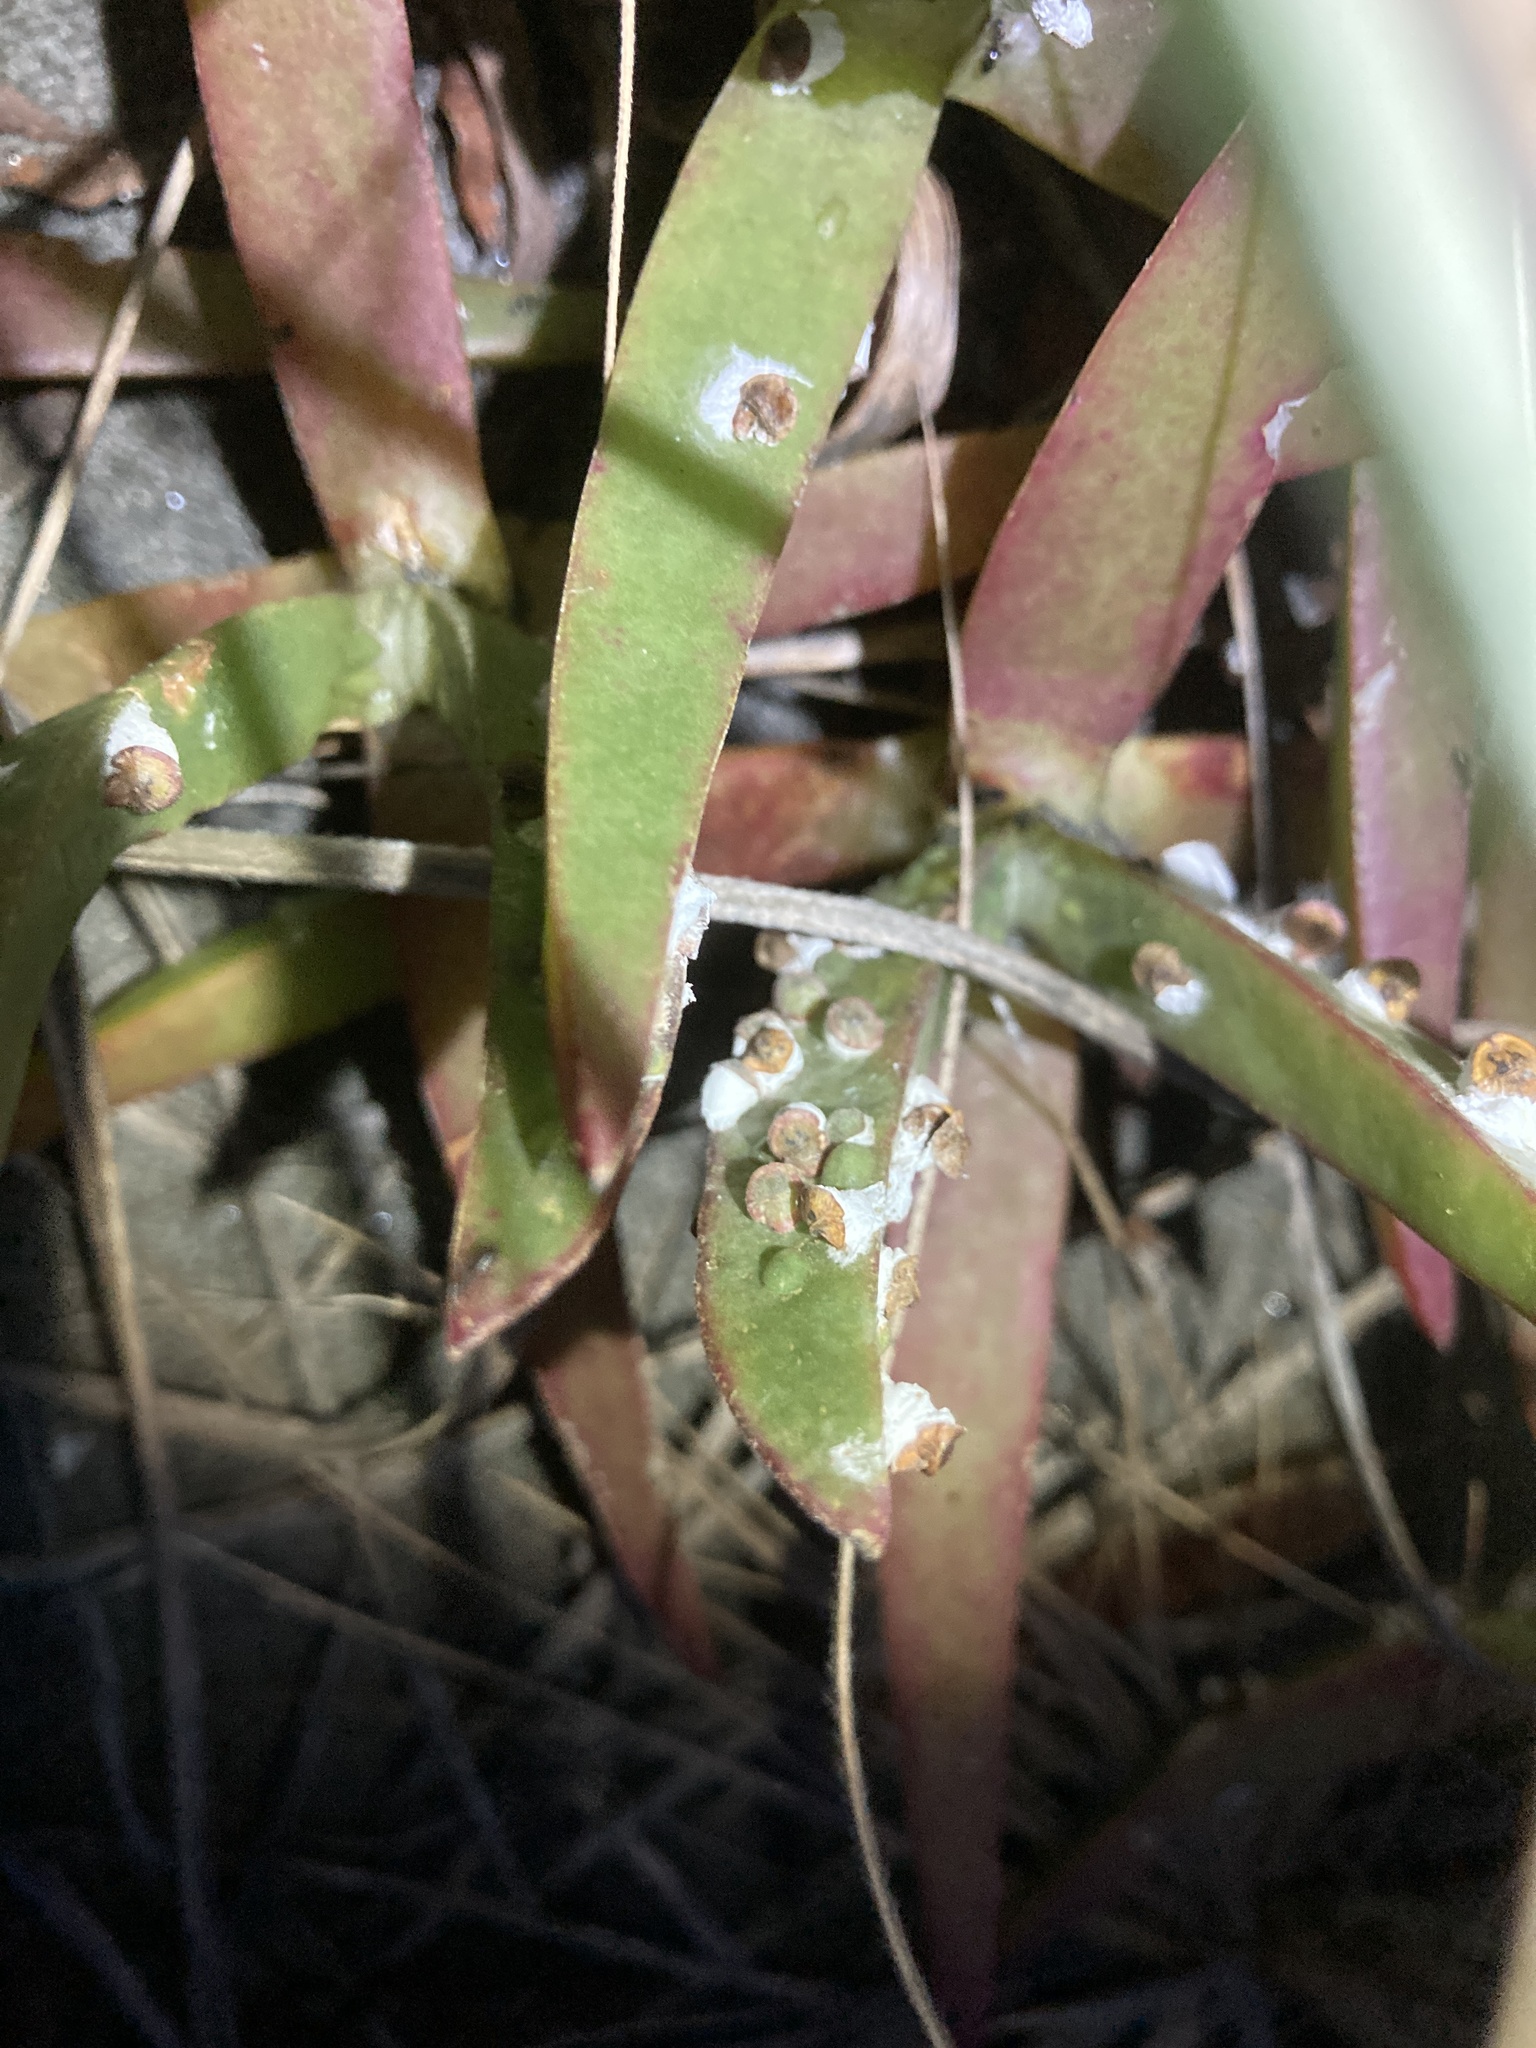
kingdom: Animalia
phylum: Arthropoda
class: Insecta
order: Hemiptera
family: Coccidae
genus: Pulvinariella
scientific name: Pulvinariella mesembryanthemi
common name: Cottony pigface scale
